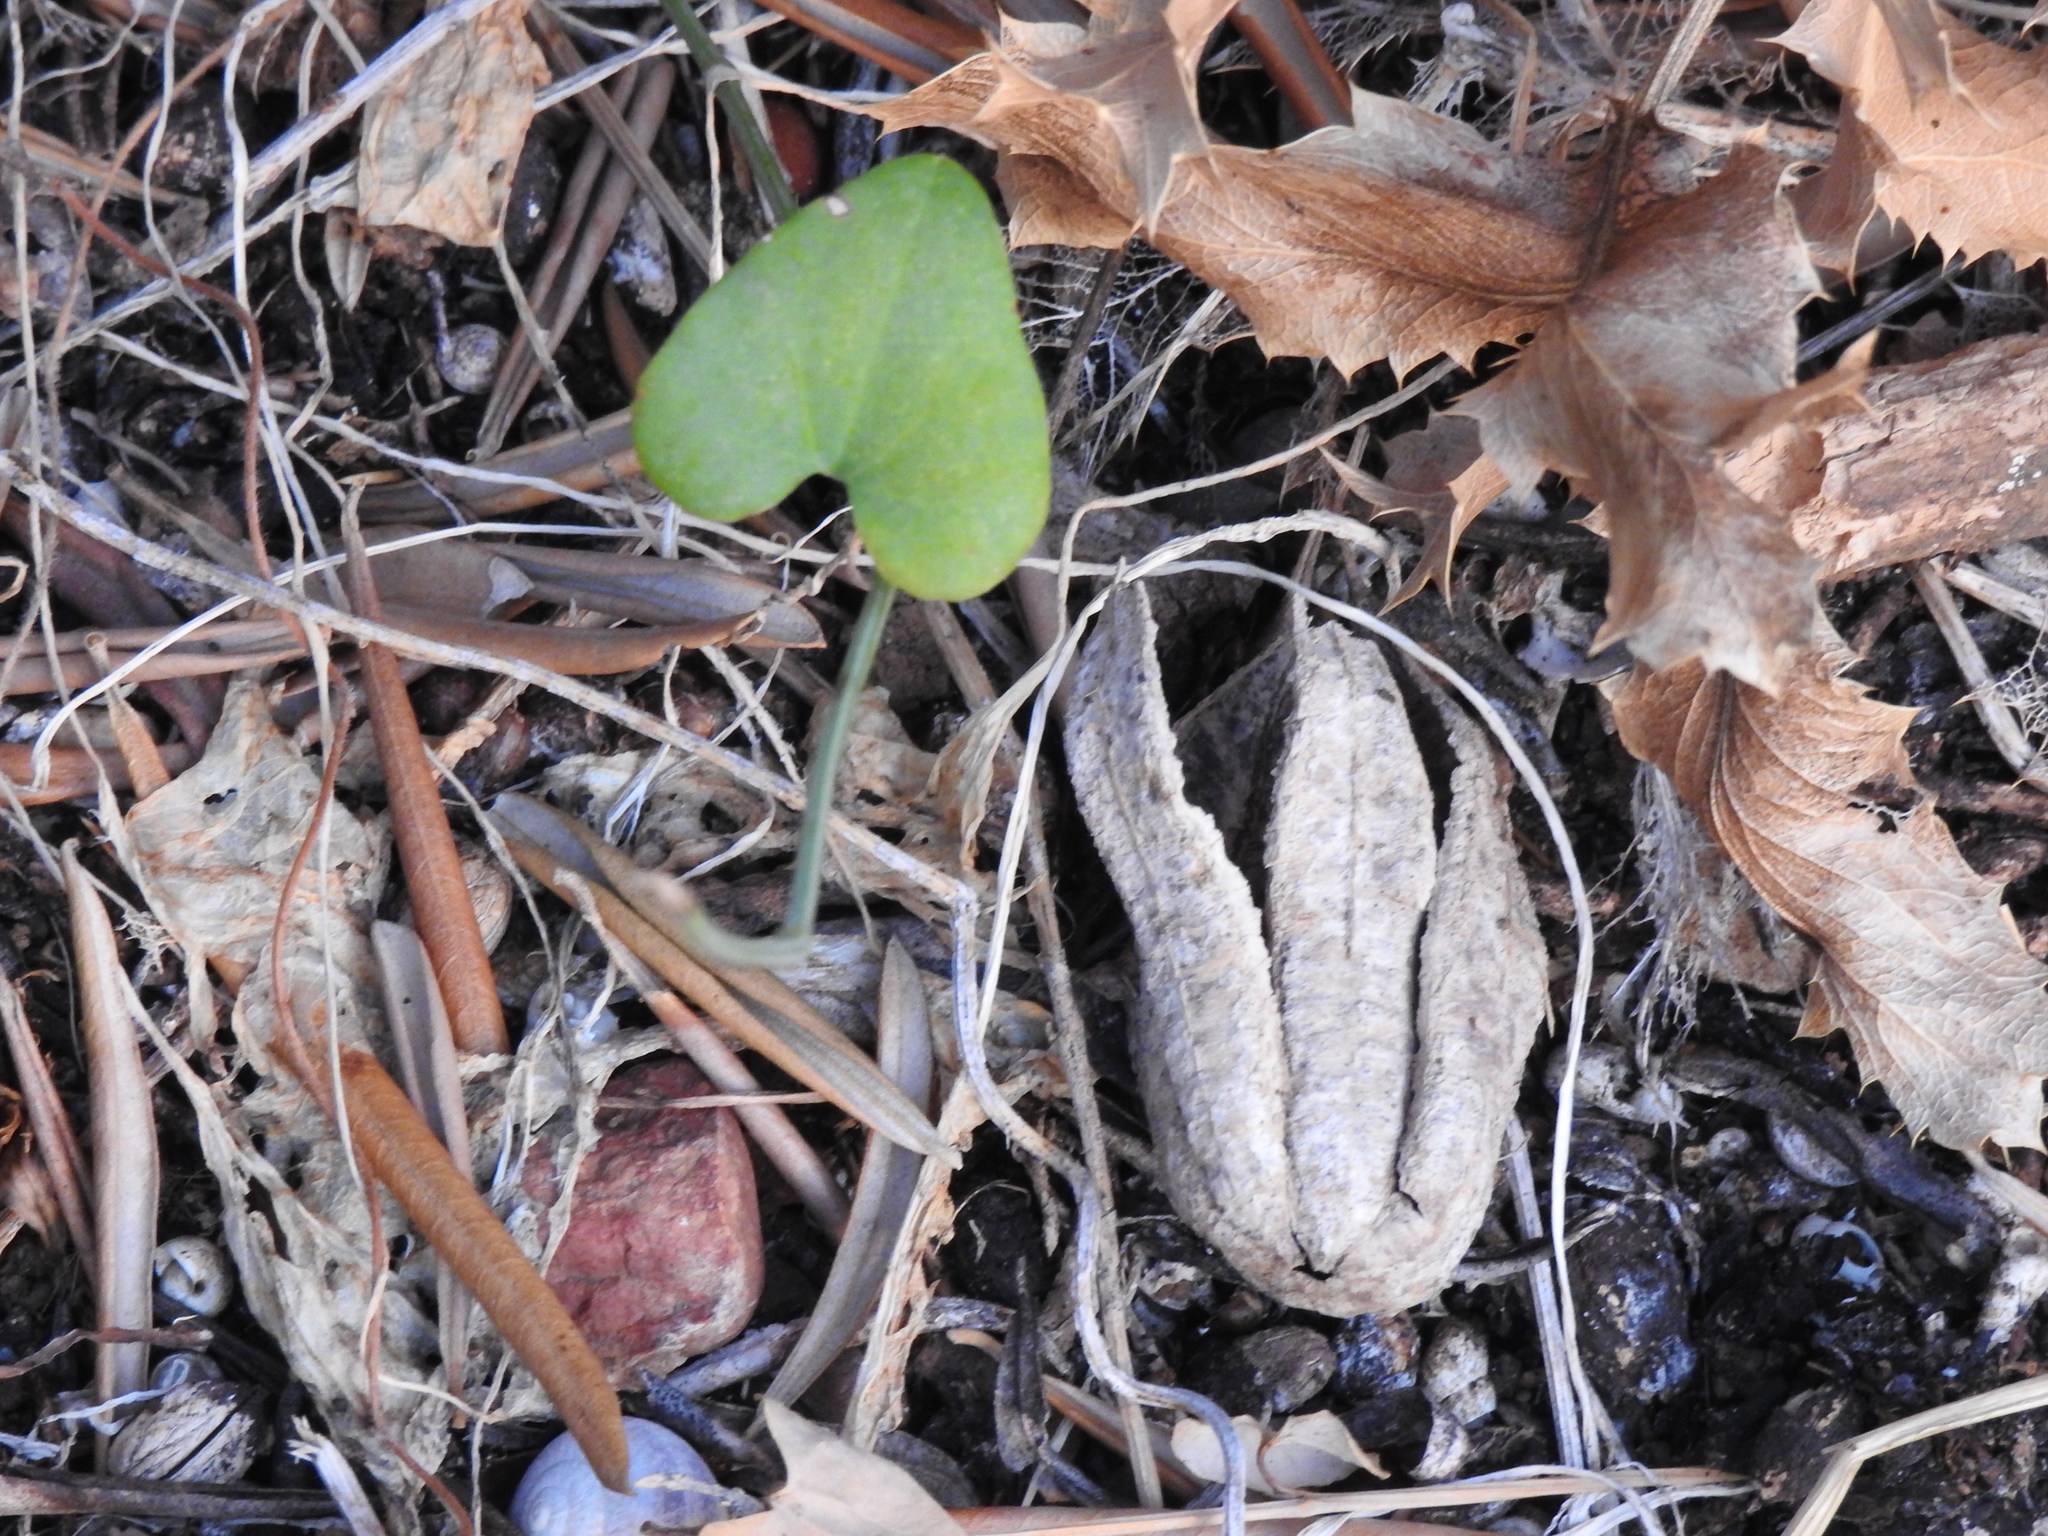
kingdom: Plantae
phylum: Tracheophyta
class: Magnoliopsida
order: Piperales
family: Aristolochiaceae
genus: Aristolochia
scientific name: Aristolochia baetica
